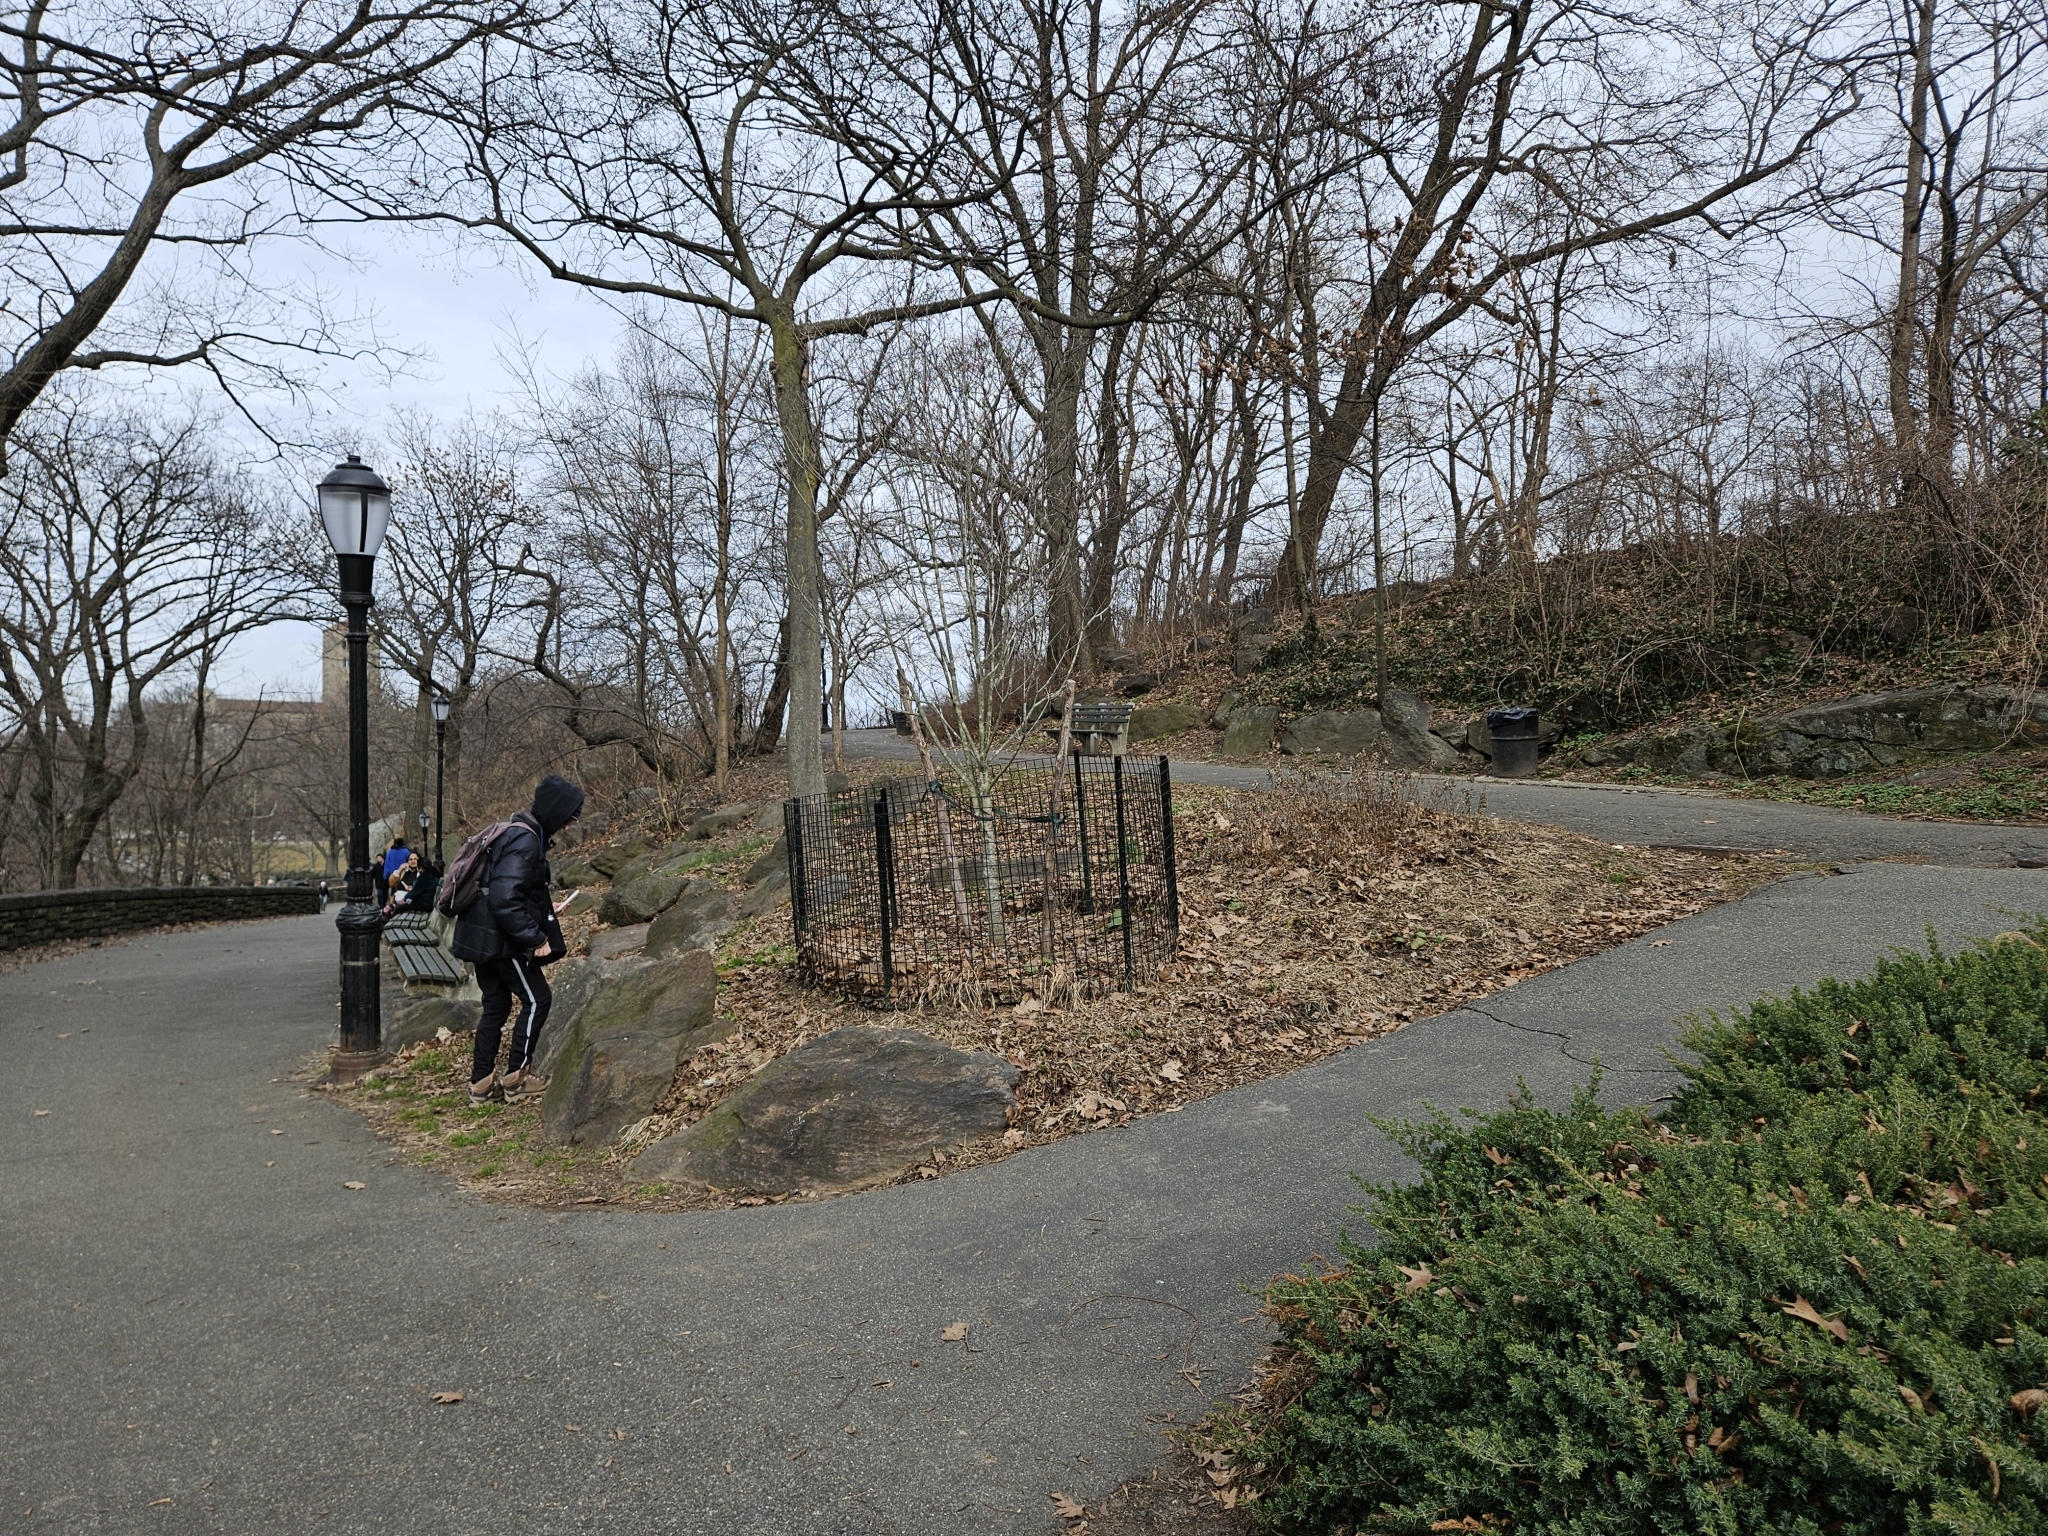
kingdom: Plantae
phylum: Tracheophyta
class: Magnoliopsida
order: Asterales
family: Asteraceae
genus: Erigeron
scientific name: Erigeron annuus
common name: Tall fleabane
